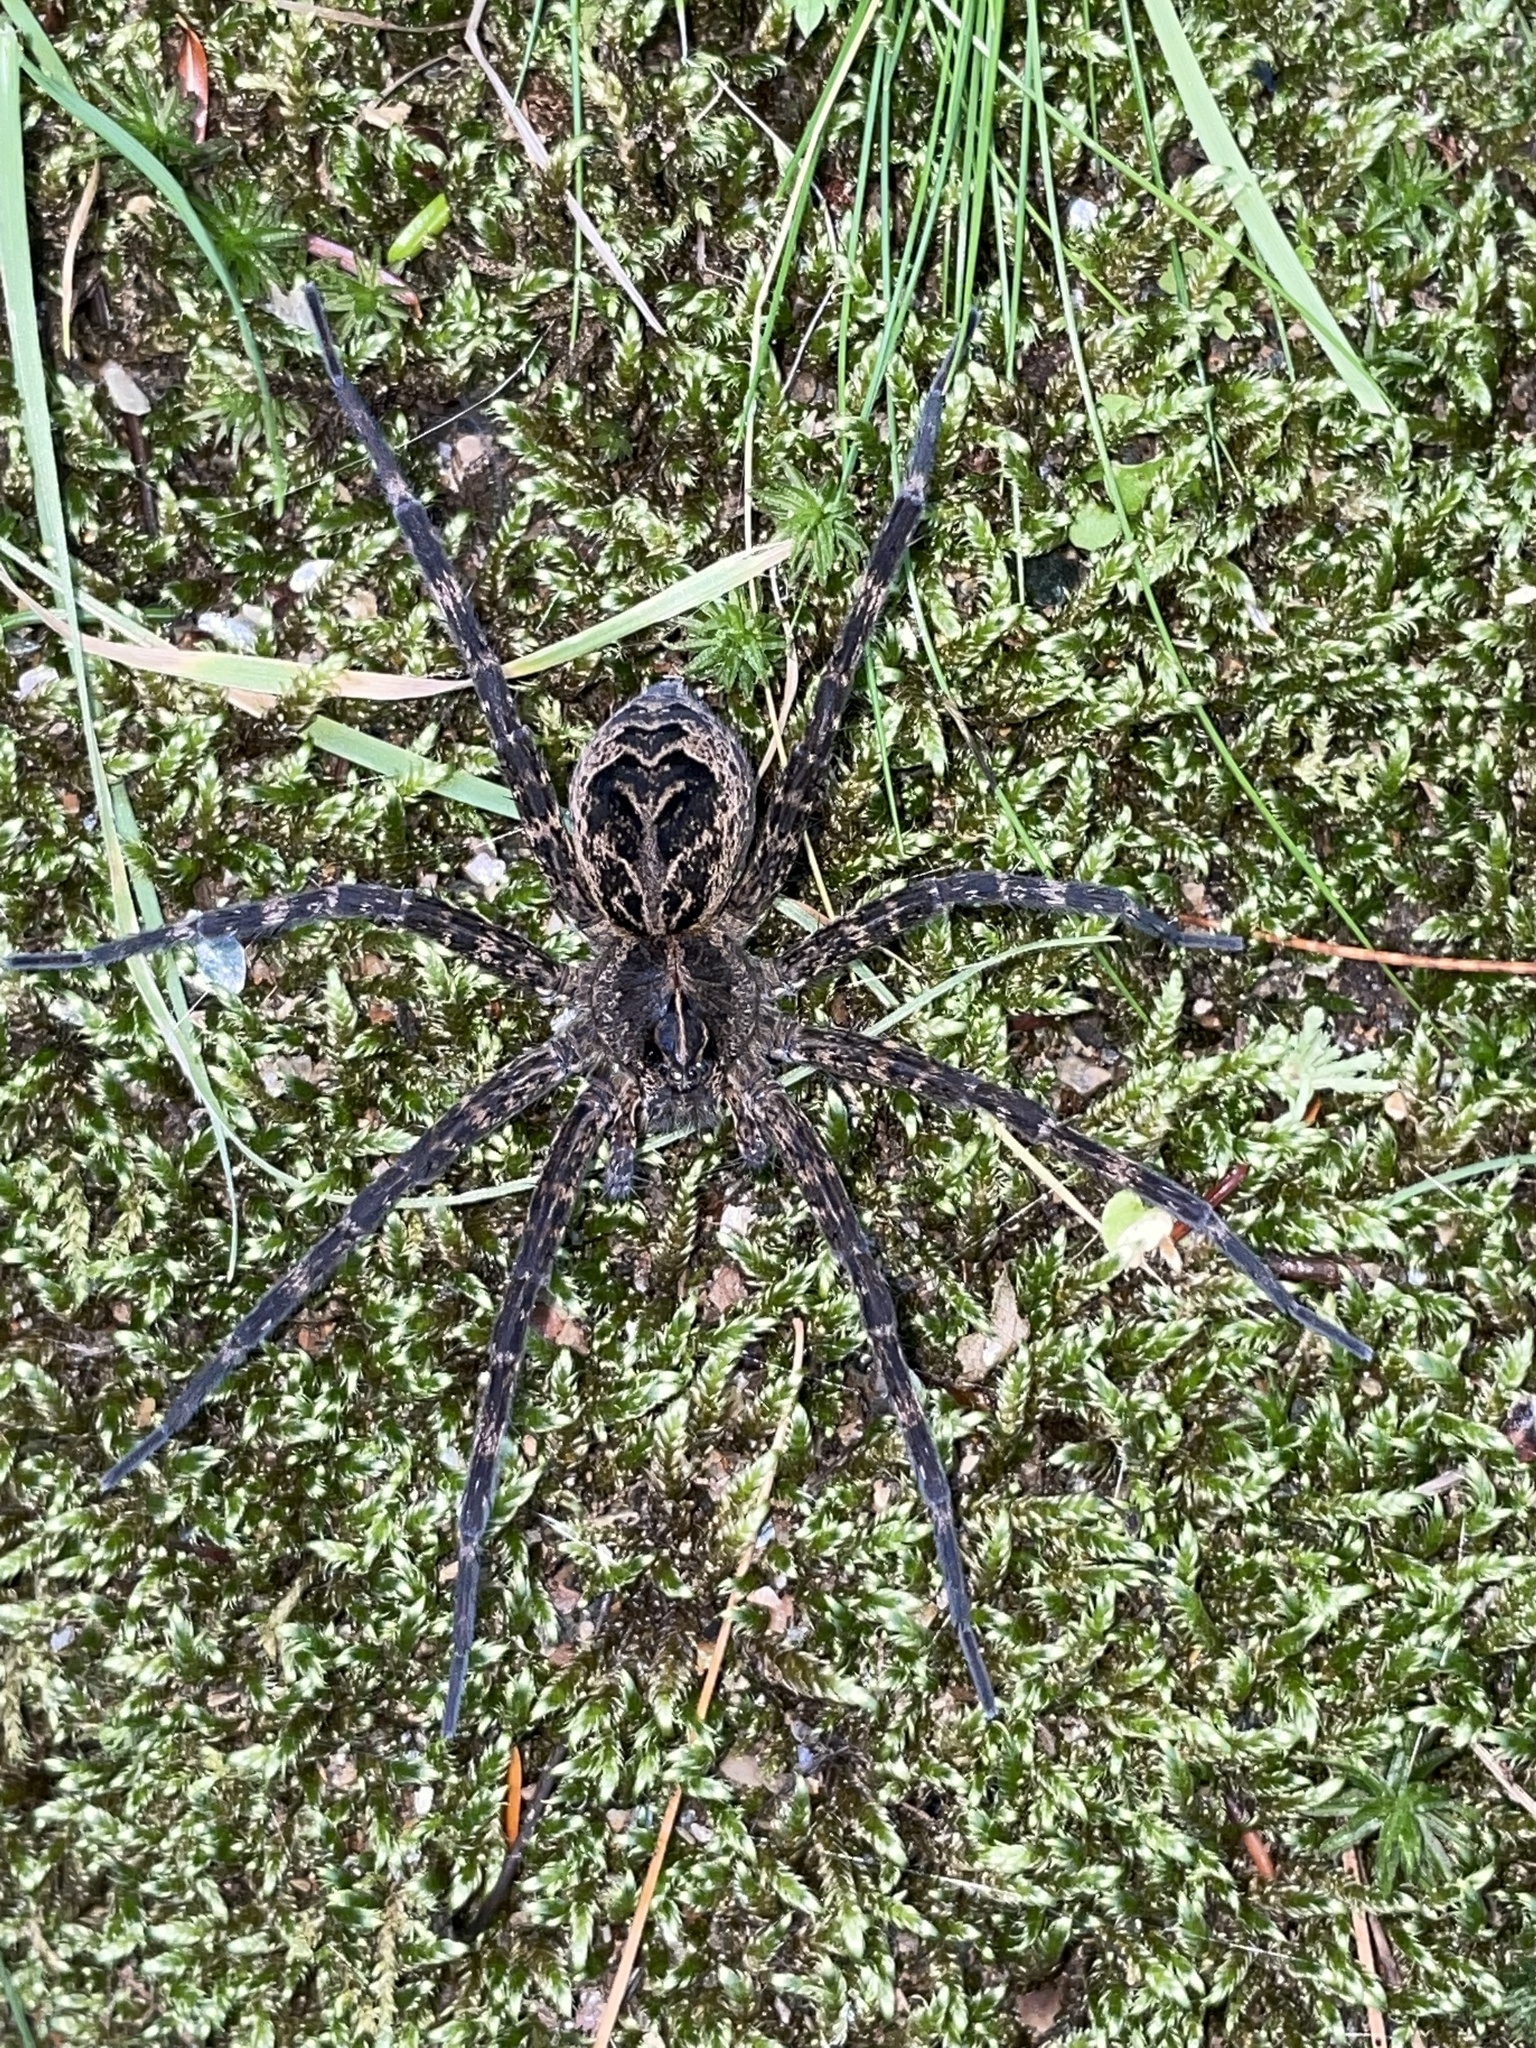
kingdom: Animalia
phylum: Arthropoda
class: Arachnida
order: Araneae
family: Pisauridae
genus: Dolomedes
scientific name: Dolomedes scriptus
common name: Striped fishing spider
